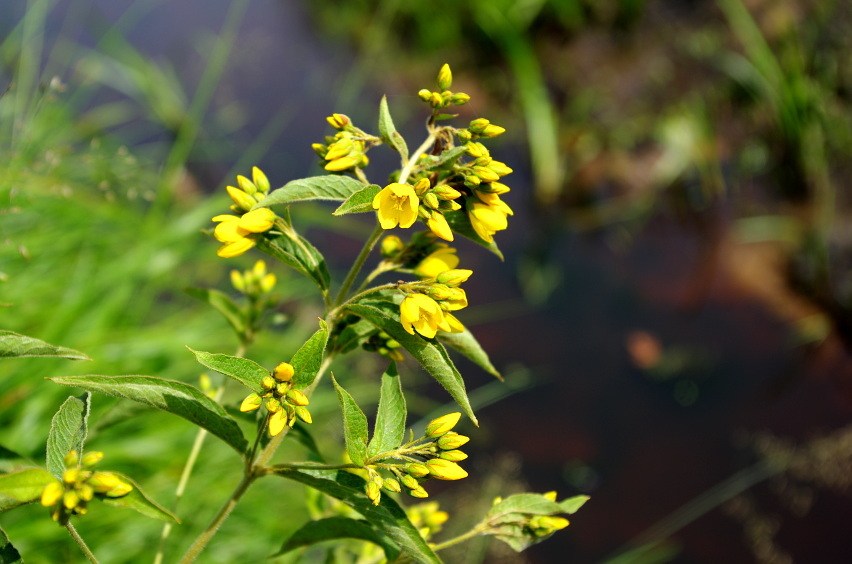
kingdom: Plantae
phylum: Tracheophyta
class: Magnoliopsida
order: Ericales
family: Primulaceae
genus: Lysimachia
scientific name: Lysimachia vulgaris
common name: Yellow loosestrife
